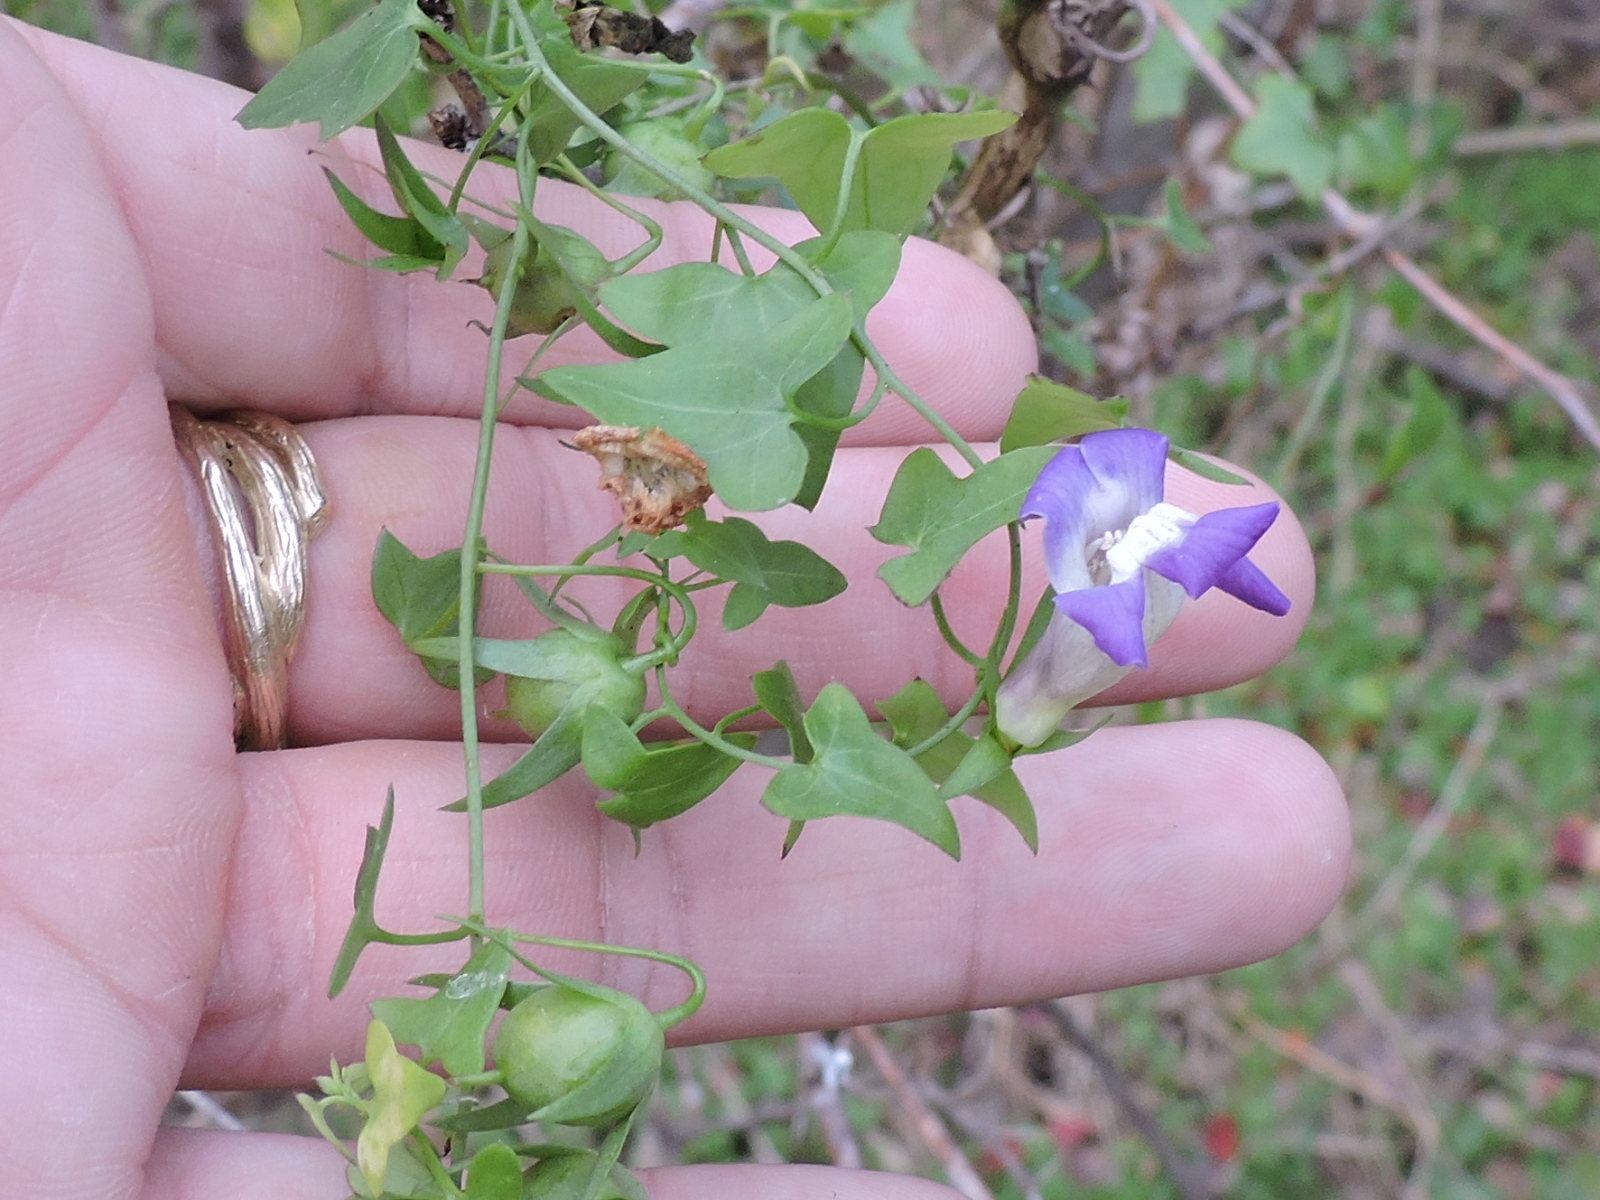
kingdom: Plantae
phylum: Tracheophyta
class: Magnoliopsida
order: Lamiales
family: Plantaginaceae
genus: Maurandella
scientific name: Maurandella antirrhiniflora
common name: Violet twining-snapdragon
